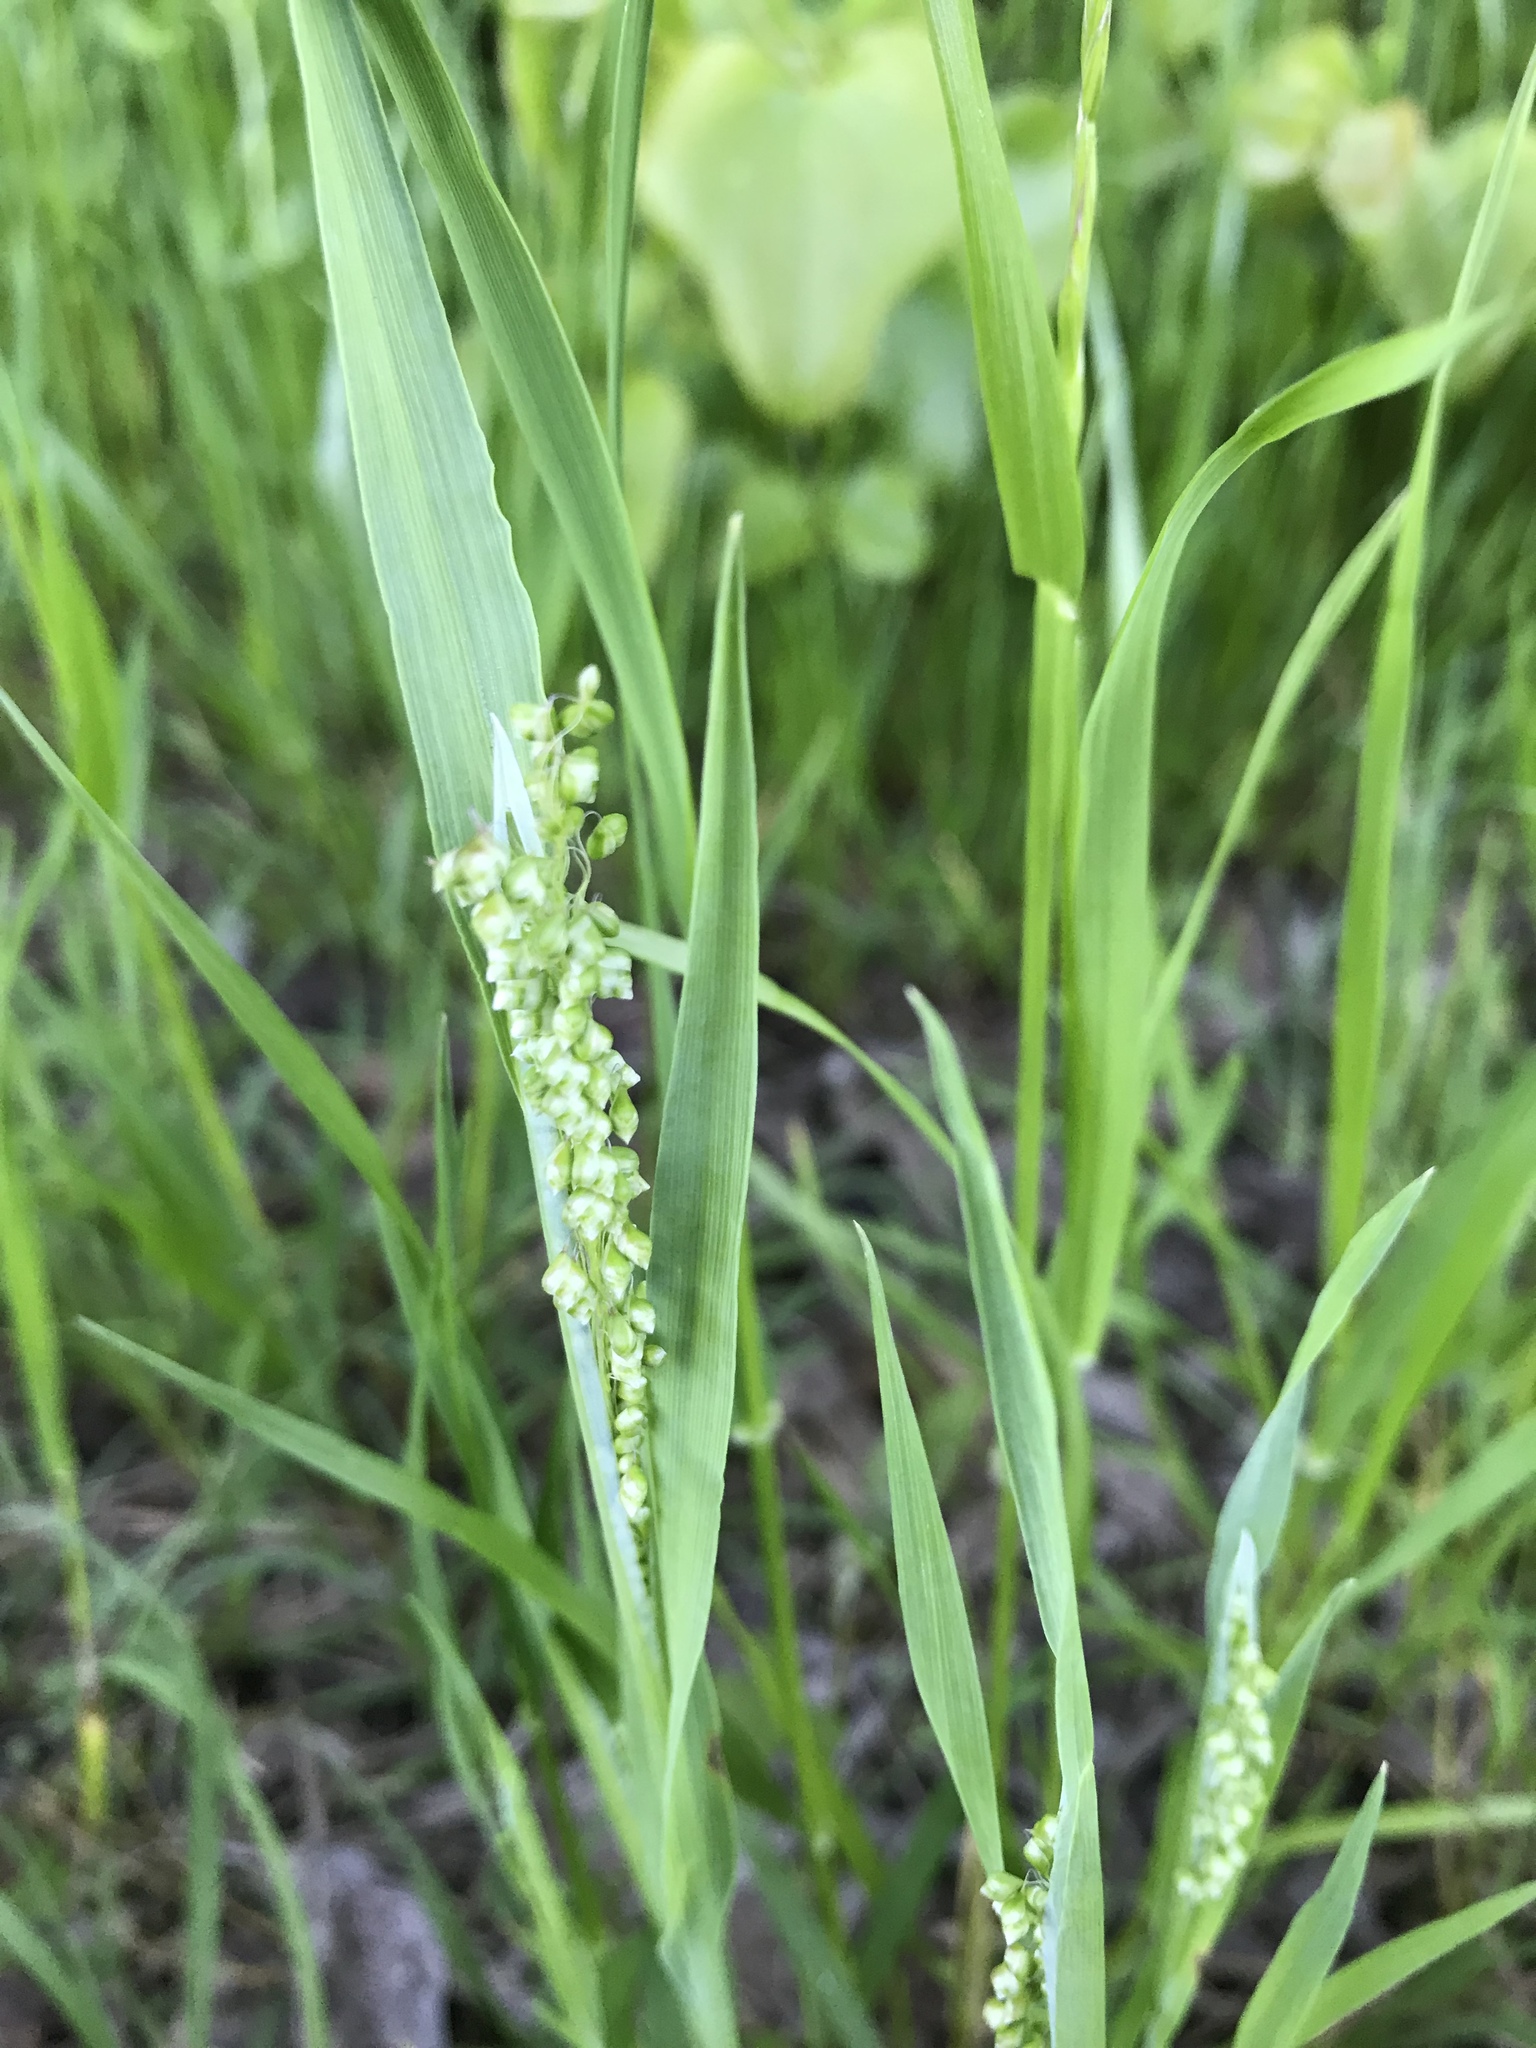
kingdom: Plantae
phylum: Tracheophyta
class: Liliopsida
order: Poales
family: Poaceae
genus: Briza
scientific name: Briza minor
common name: Lesser quaking-grass
